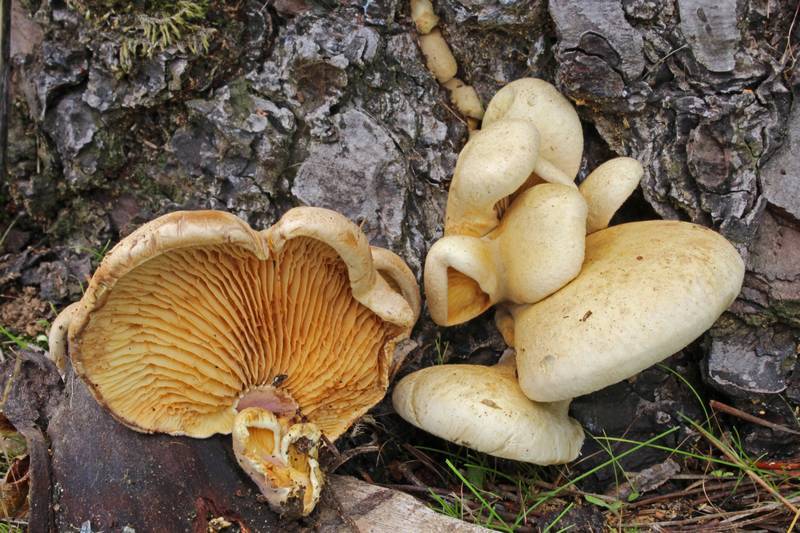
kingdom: Fungi
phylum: Basidiomycota
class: Agaricomycetes
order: Boletales
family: Tapinellaceae
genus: Tapinella
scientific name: Tapinella panuoides
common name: Oyster rollrim
